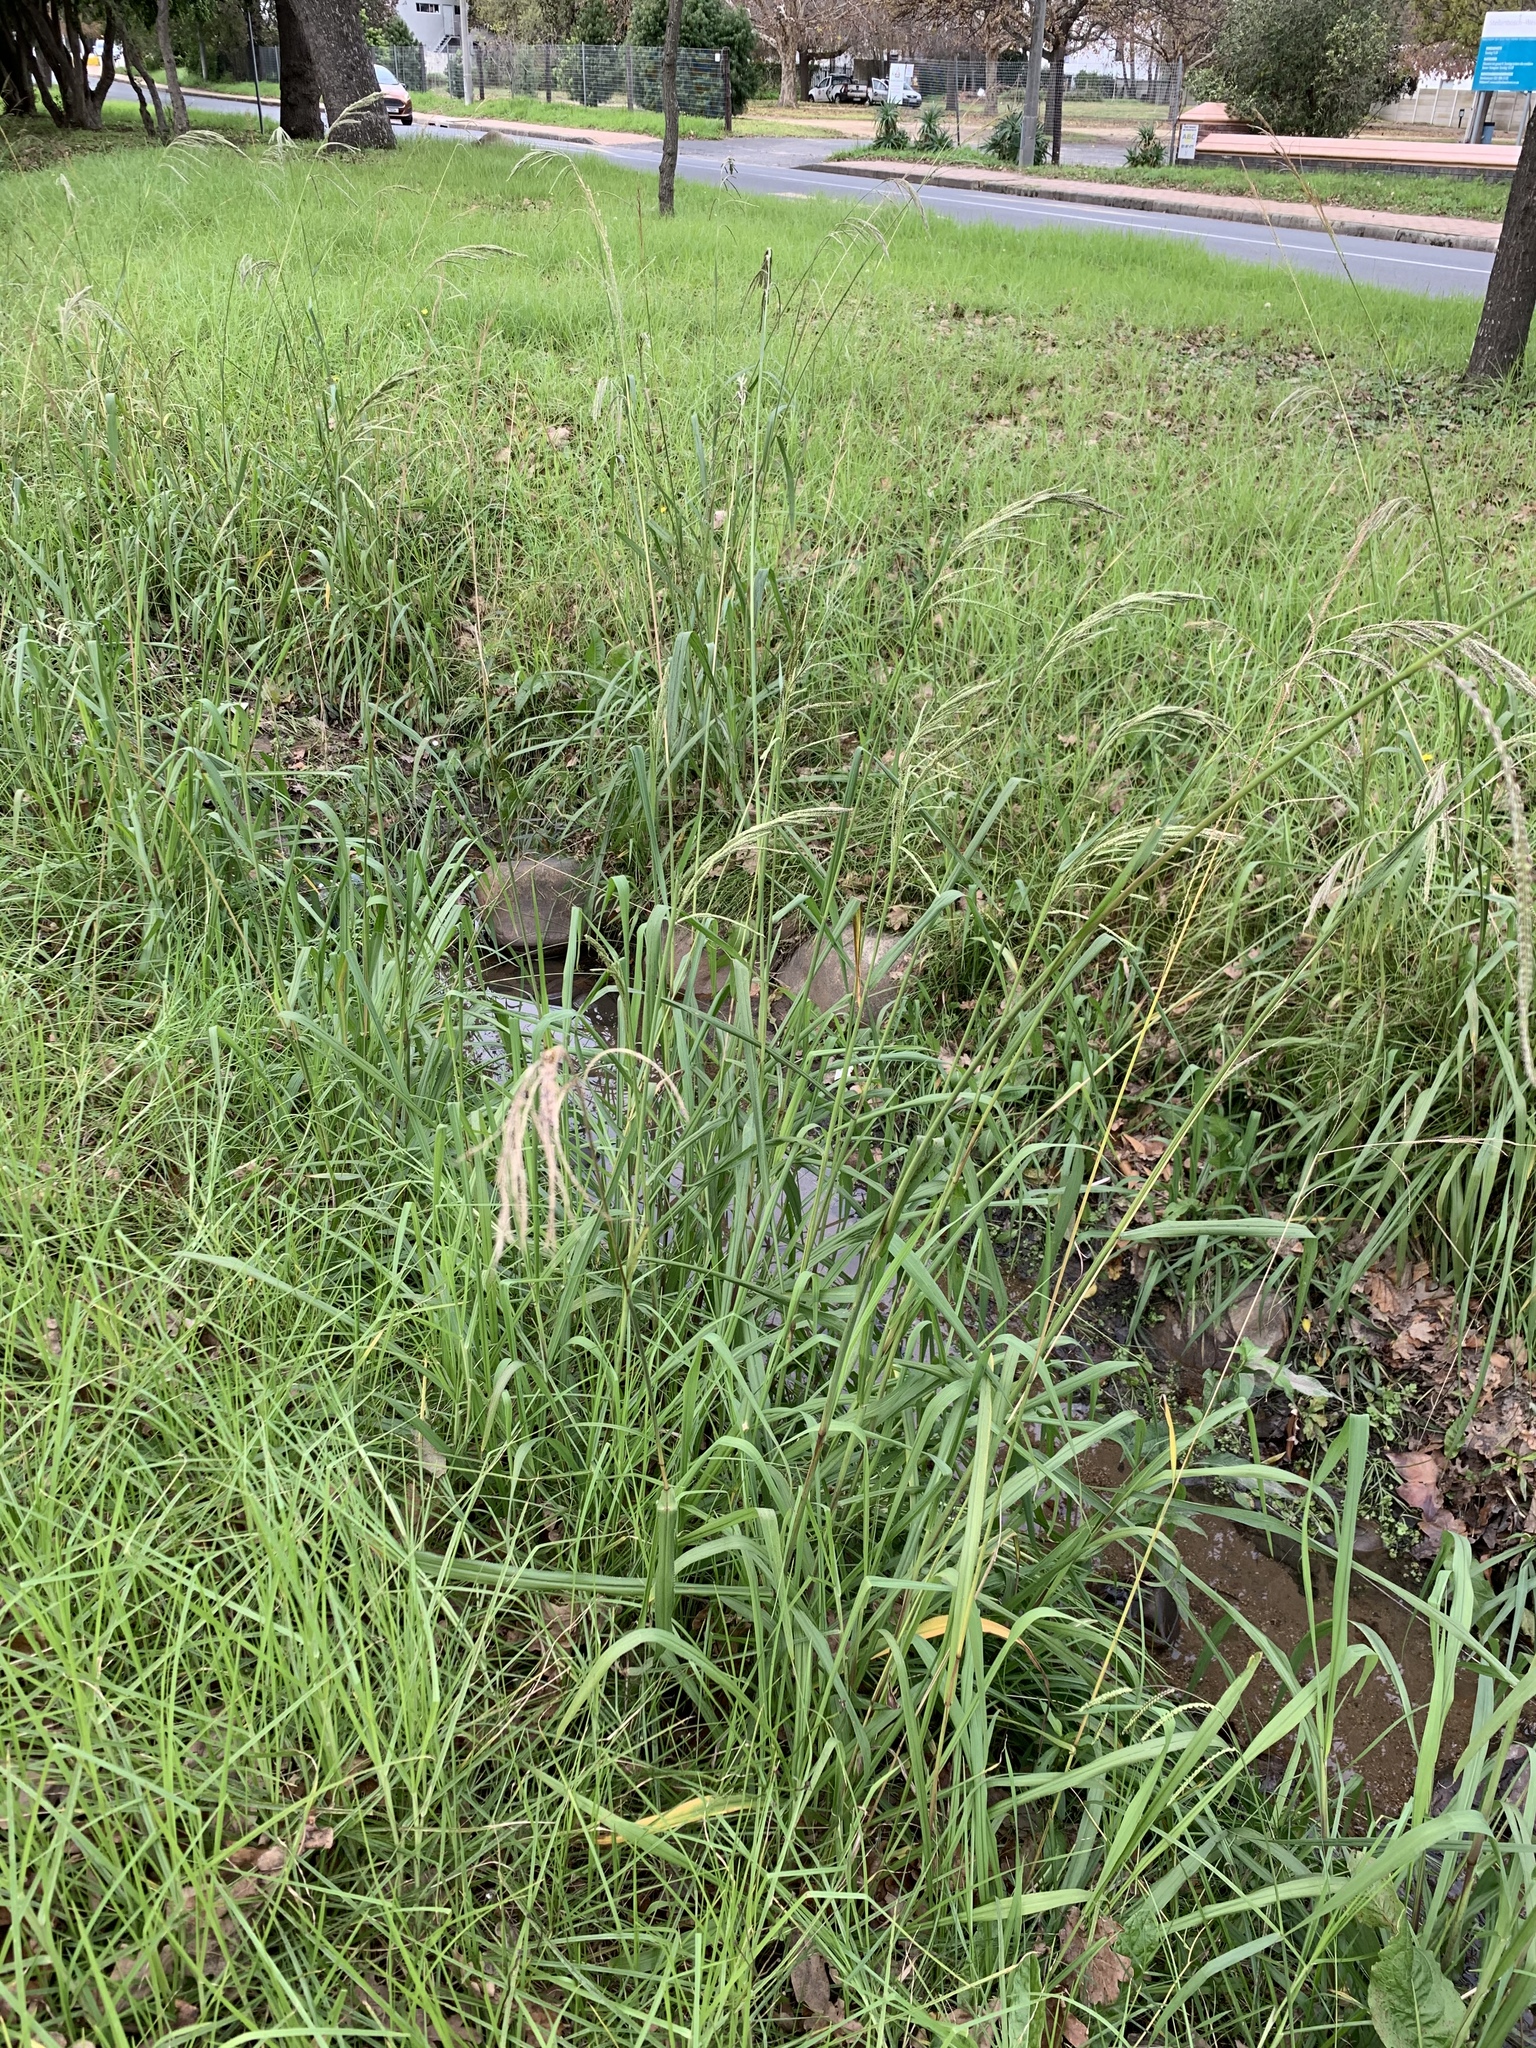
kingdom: Plantae
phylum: Tracheophyta
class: Liliopsida
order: Poales
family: Poaceae
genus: Paspalum
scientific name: Paspalum urvillei
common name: Vasey's grass
